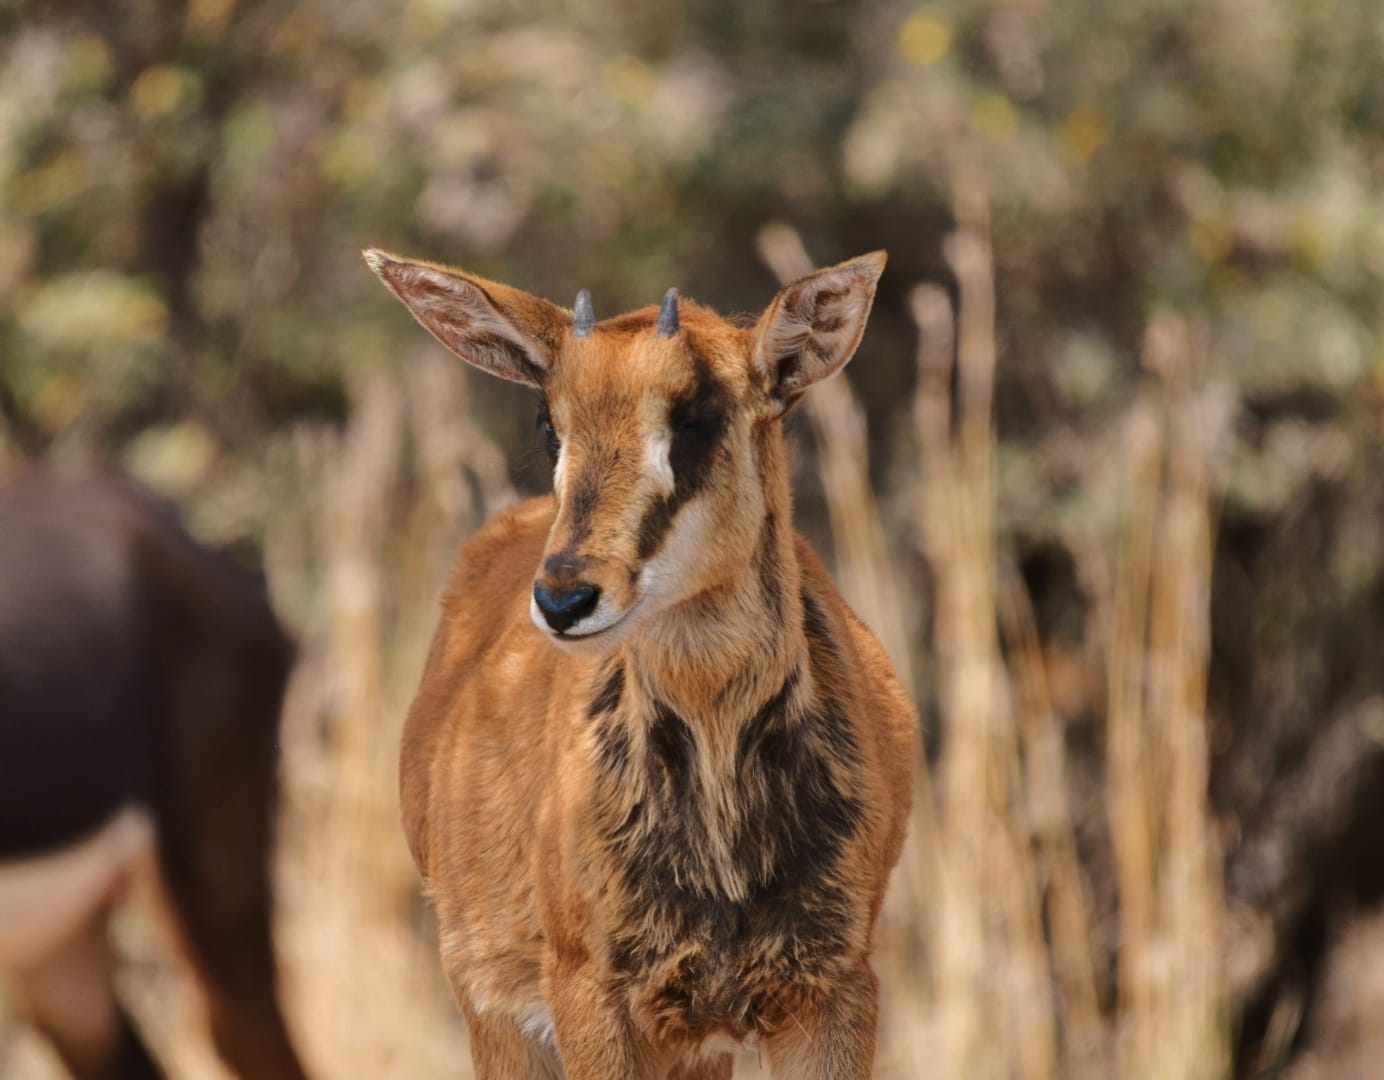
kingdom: Animalia
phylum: Chordata
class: Mammalia
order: Artiodactyla
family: Bovidae
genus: Hippotragus
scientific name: Hippotragus niger
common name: Sable antelope
